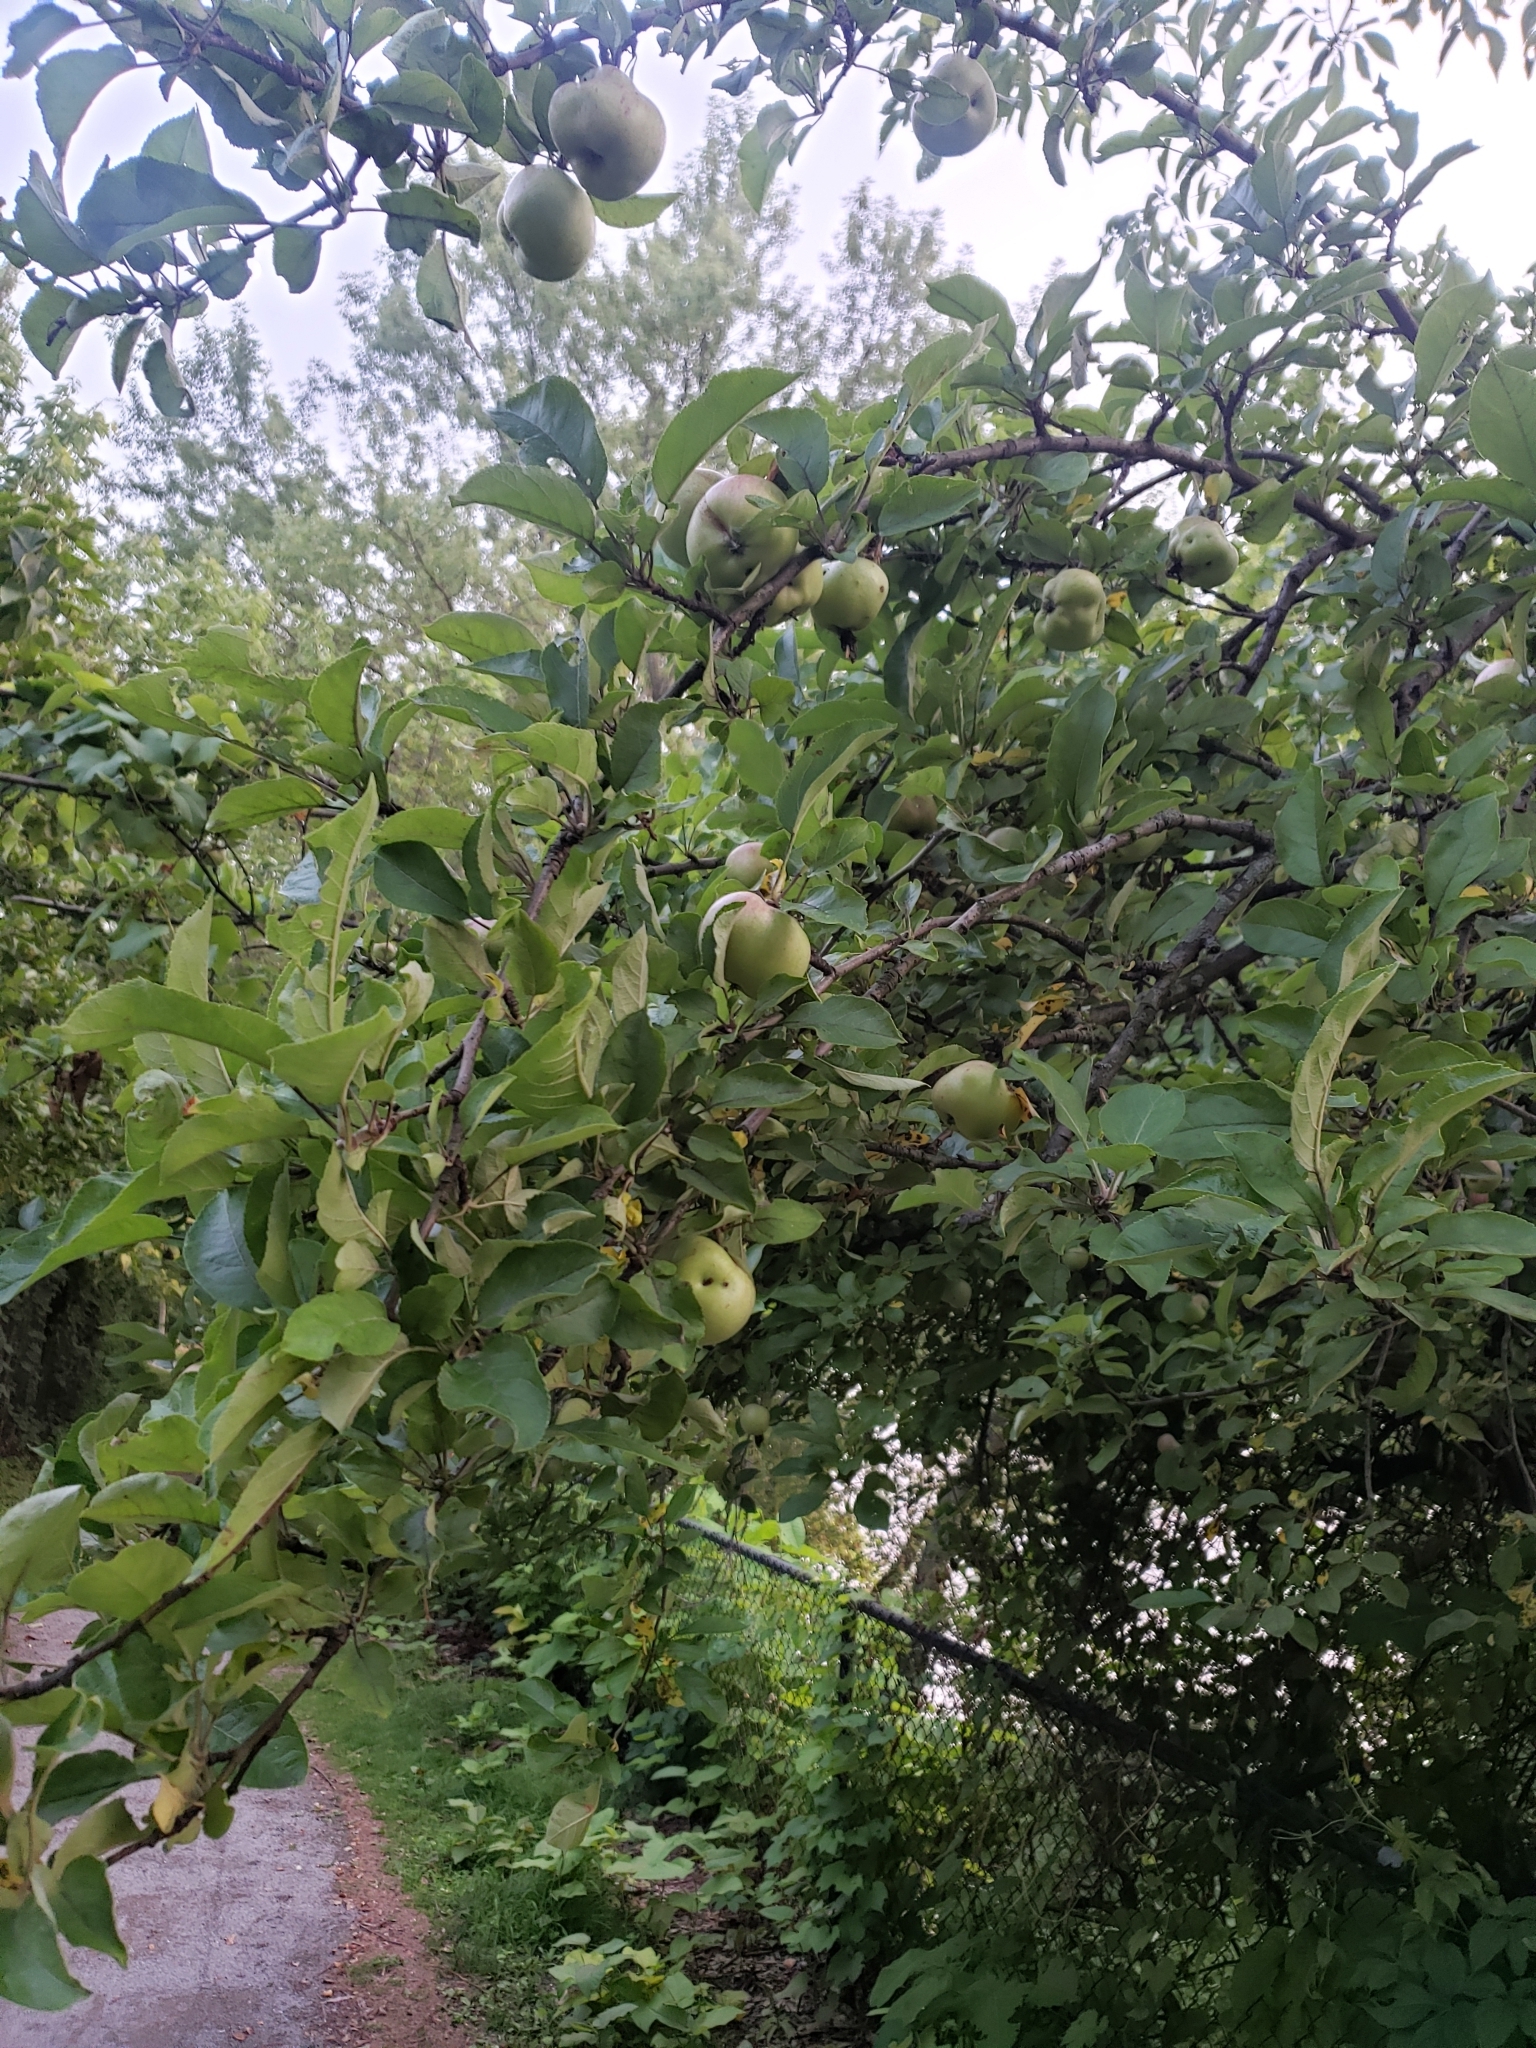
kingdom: Plantae
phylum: Tracheophyta
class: Magnoliopsida
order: Rosales
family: Rosaceae
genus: Malus
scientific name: Malus domestica
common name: Apple
